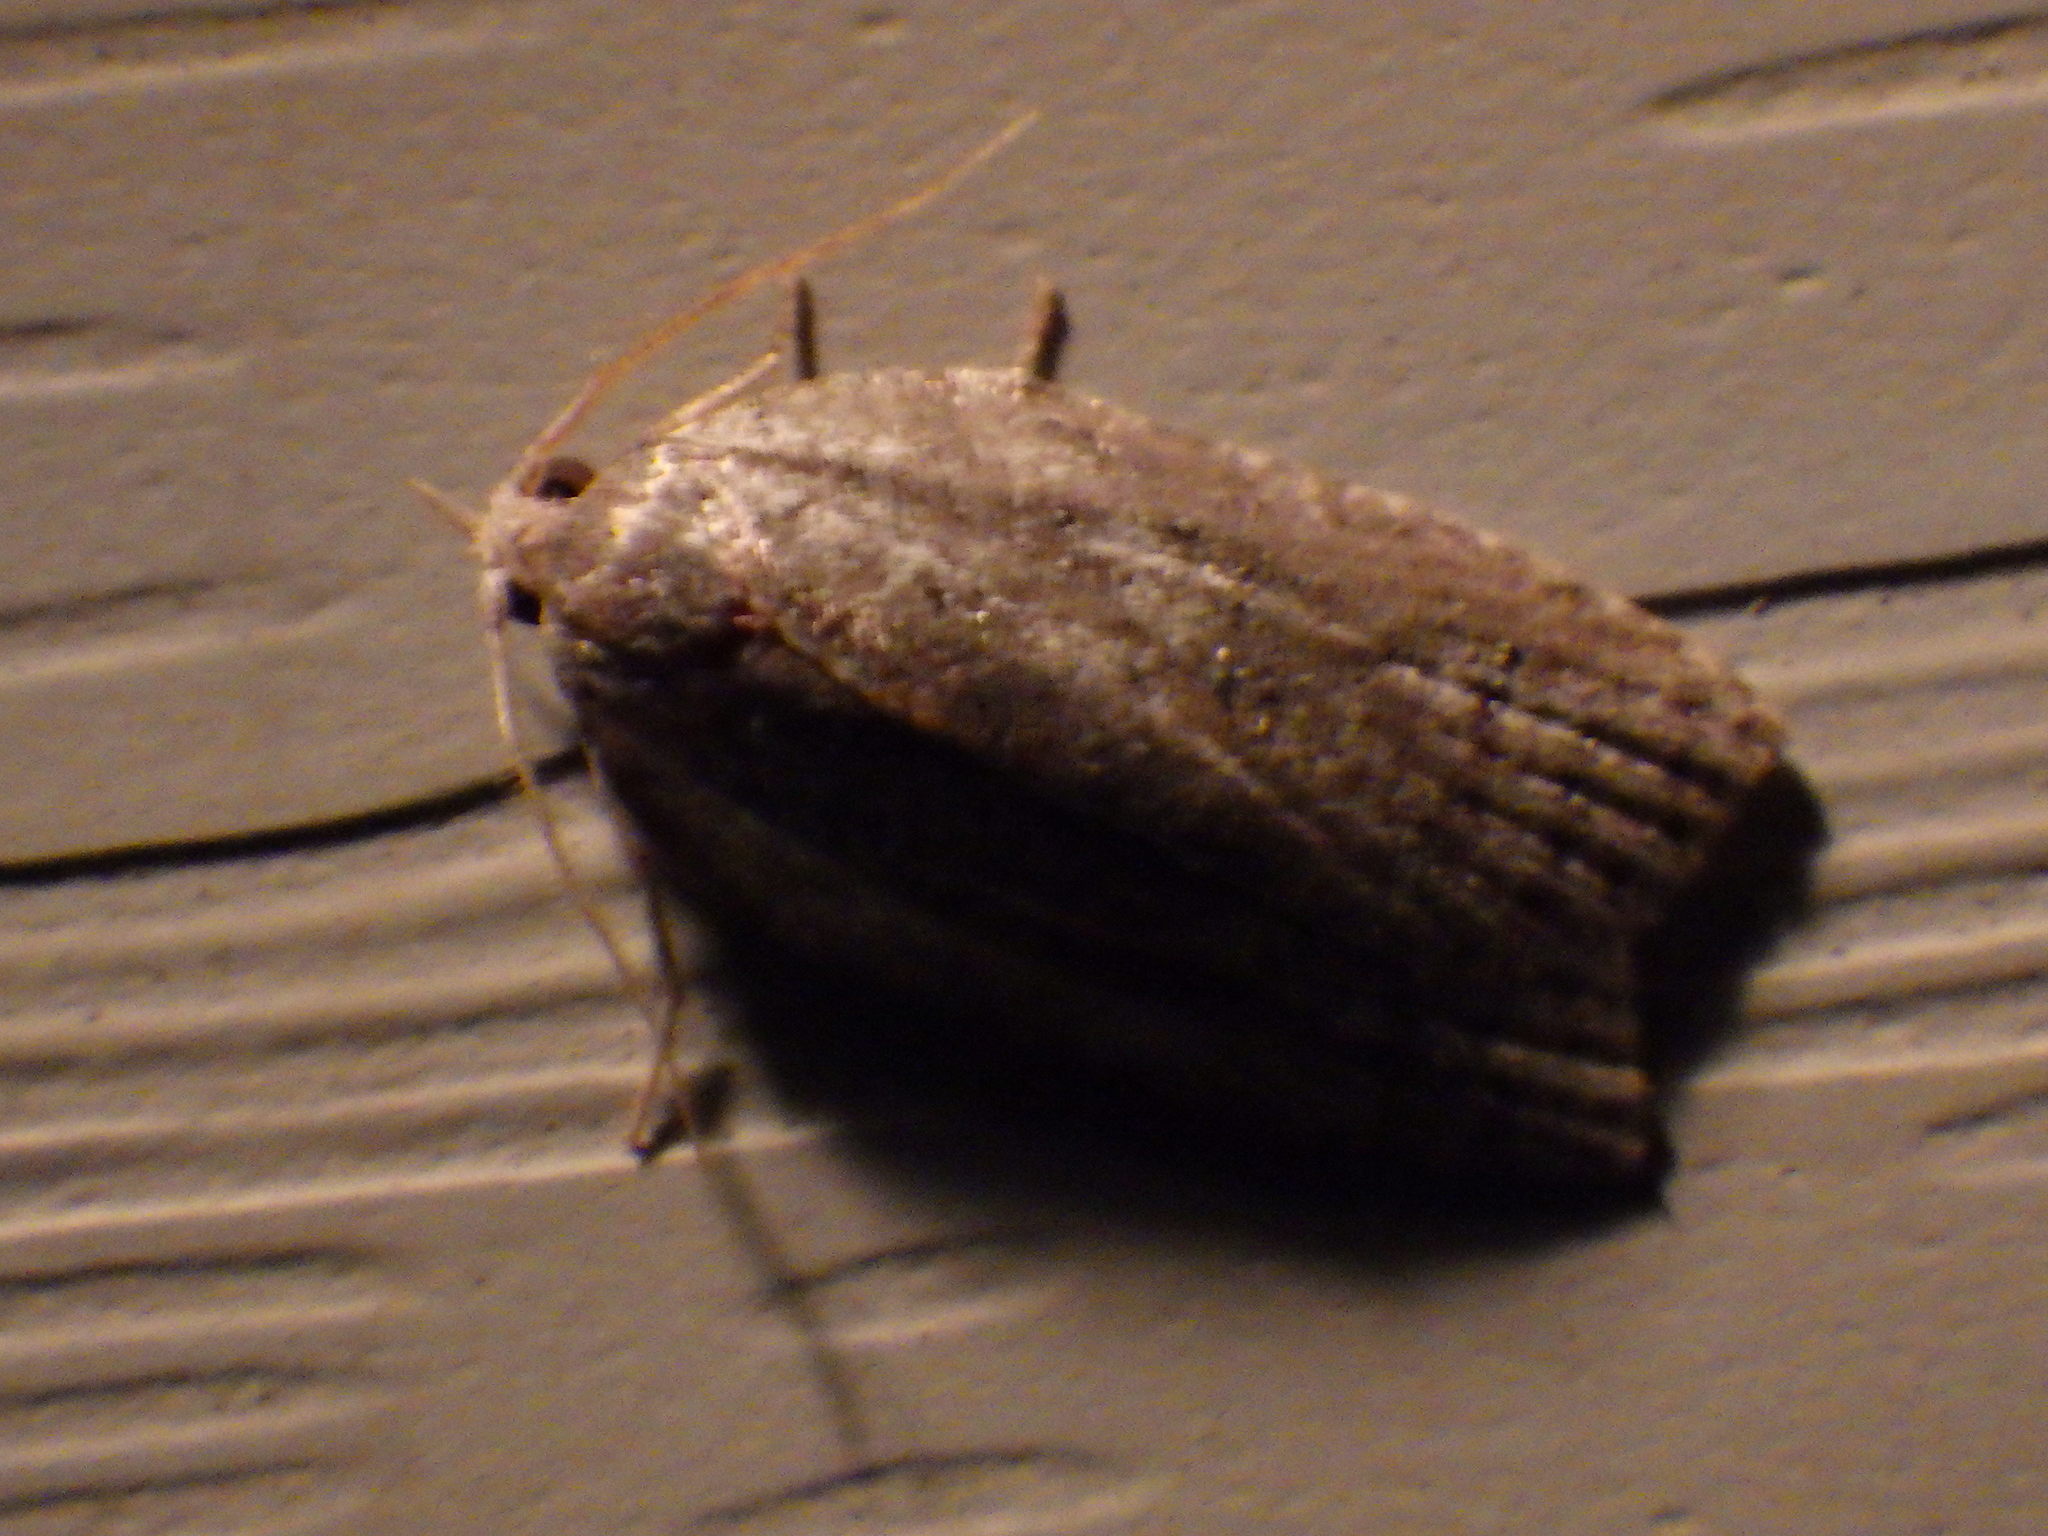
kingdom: Animalia
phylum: Arthropoda
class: Insecta
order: Lepidoptera
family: Tortricidae
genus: Amorbia
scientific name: Amorbia humerosana
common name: White-lined leafroller moth
